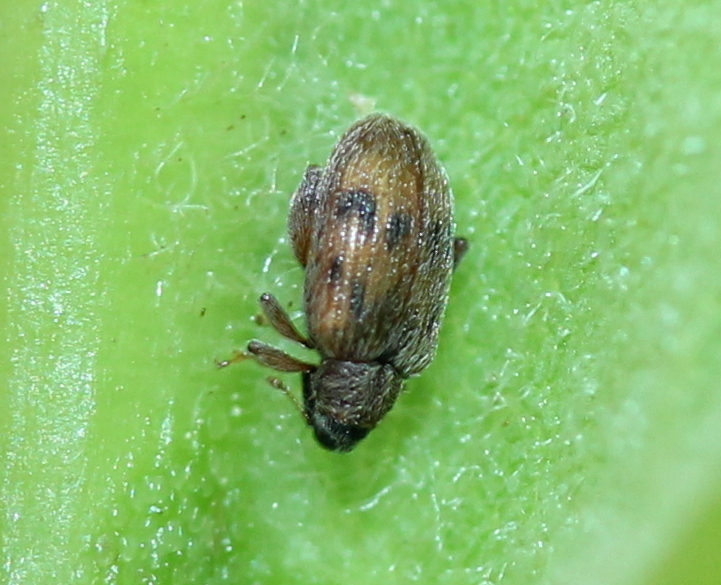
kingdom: Animalia
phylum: Arthropoda
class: Insecta
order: Coleoptera
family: Curculionidae
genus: Orchestes
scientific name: Orchestes steppensis
